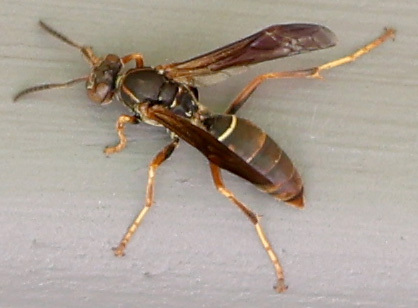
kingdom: Animalia
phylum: Arthropoda
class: Insecta
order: Hymenoptera
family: Eumenidae
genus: Polistes
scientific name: Polistes fuscatus
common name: Dark paper wasp
